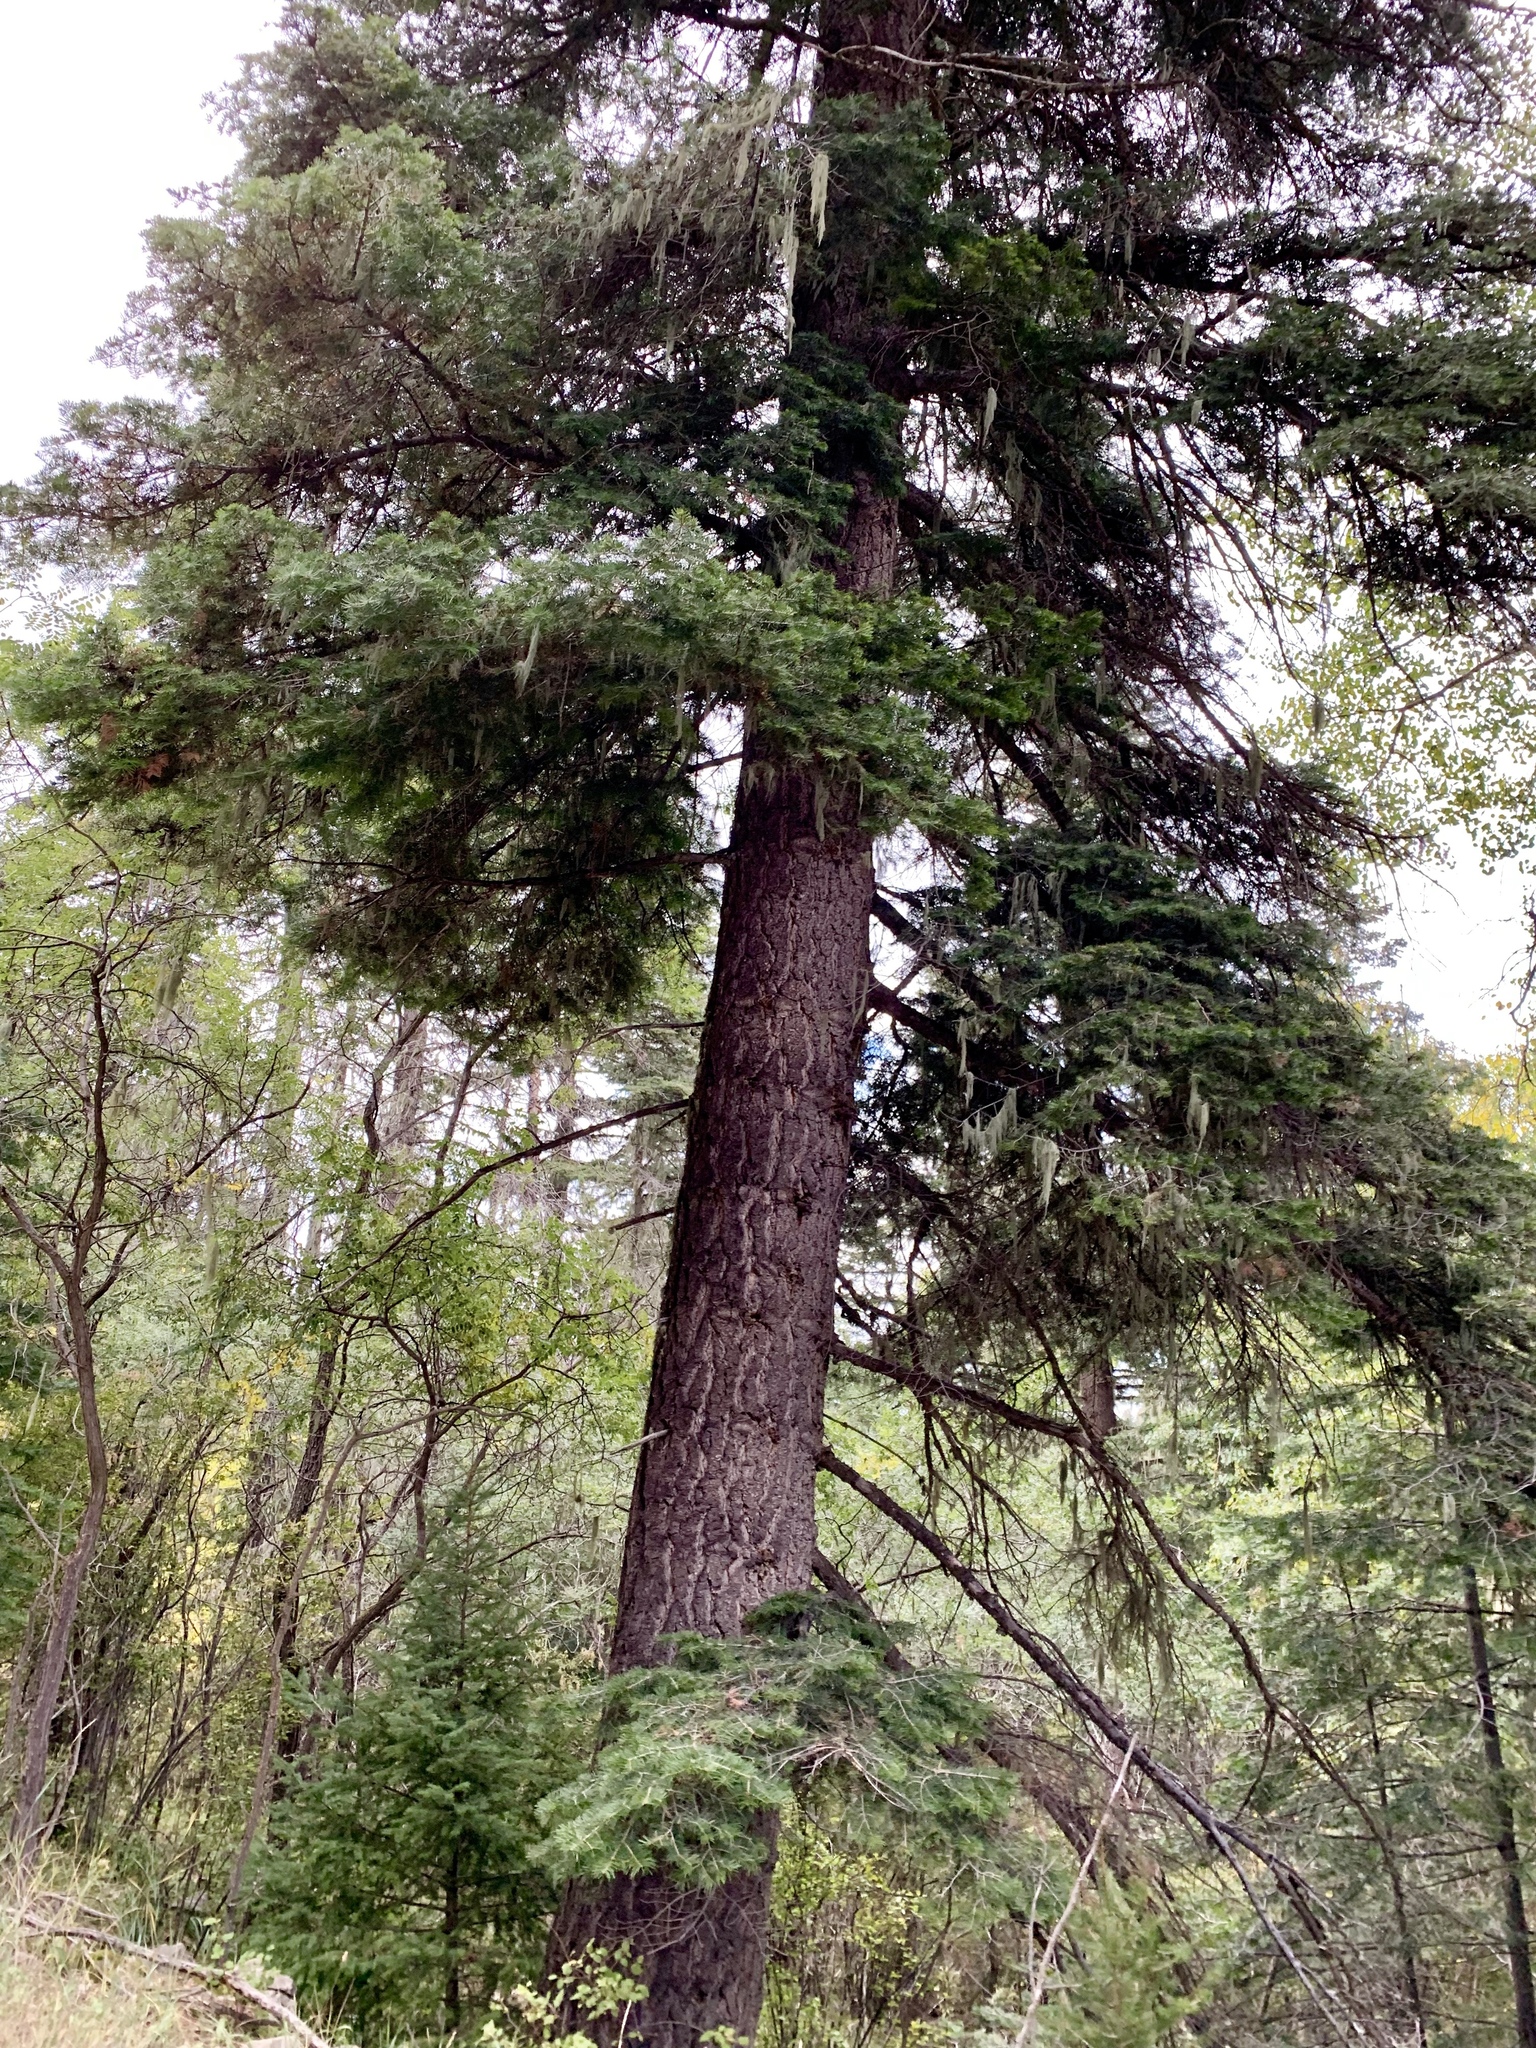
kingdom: Plantae
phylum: Tracheophyta
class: Pinopsida
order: Pinales
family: Pinaceae
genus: Abies
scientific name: Abies concolor
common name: Colorado fir
